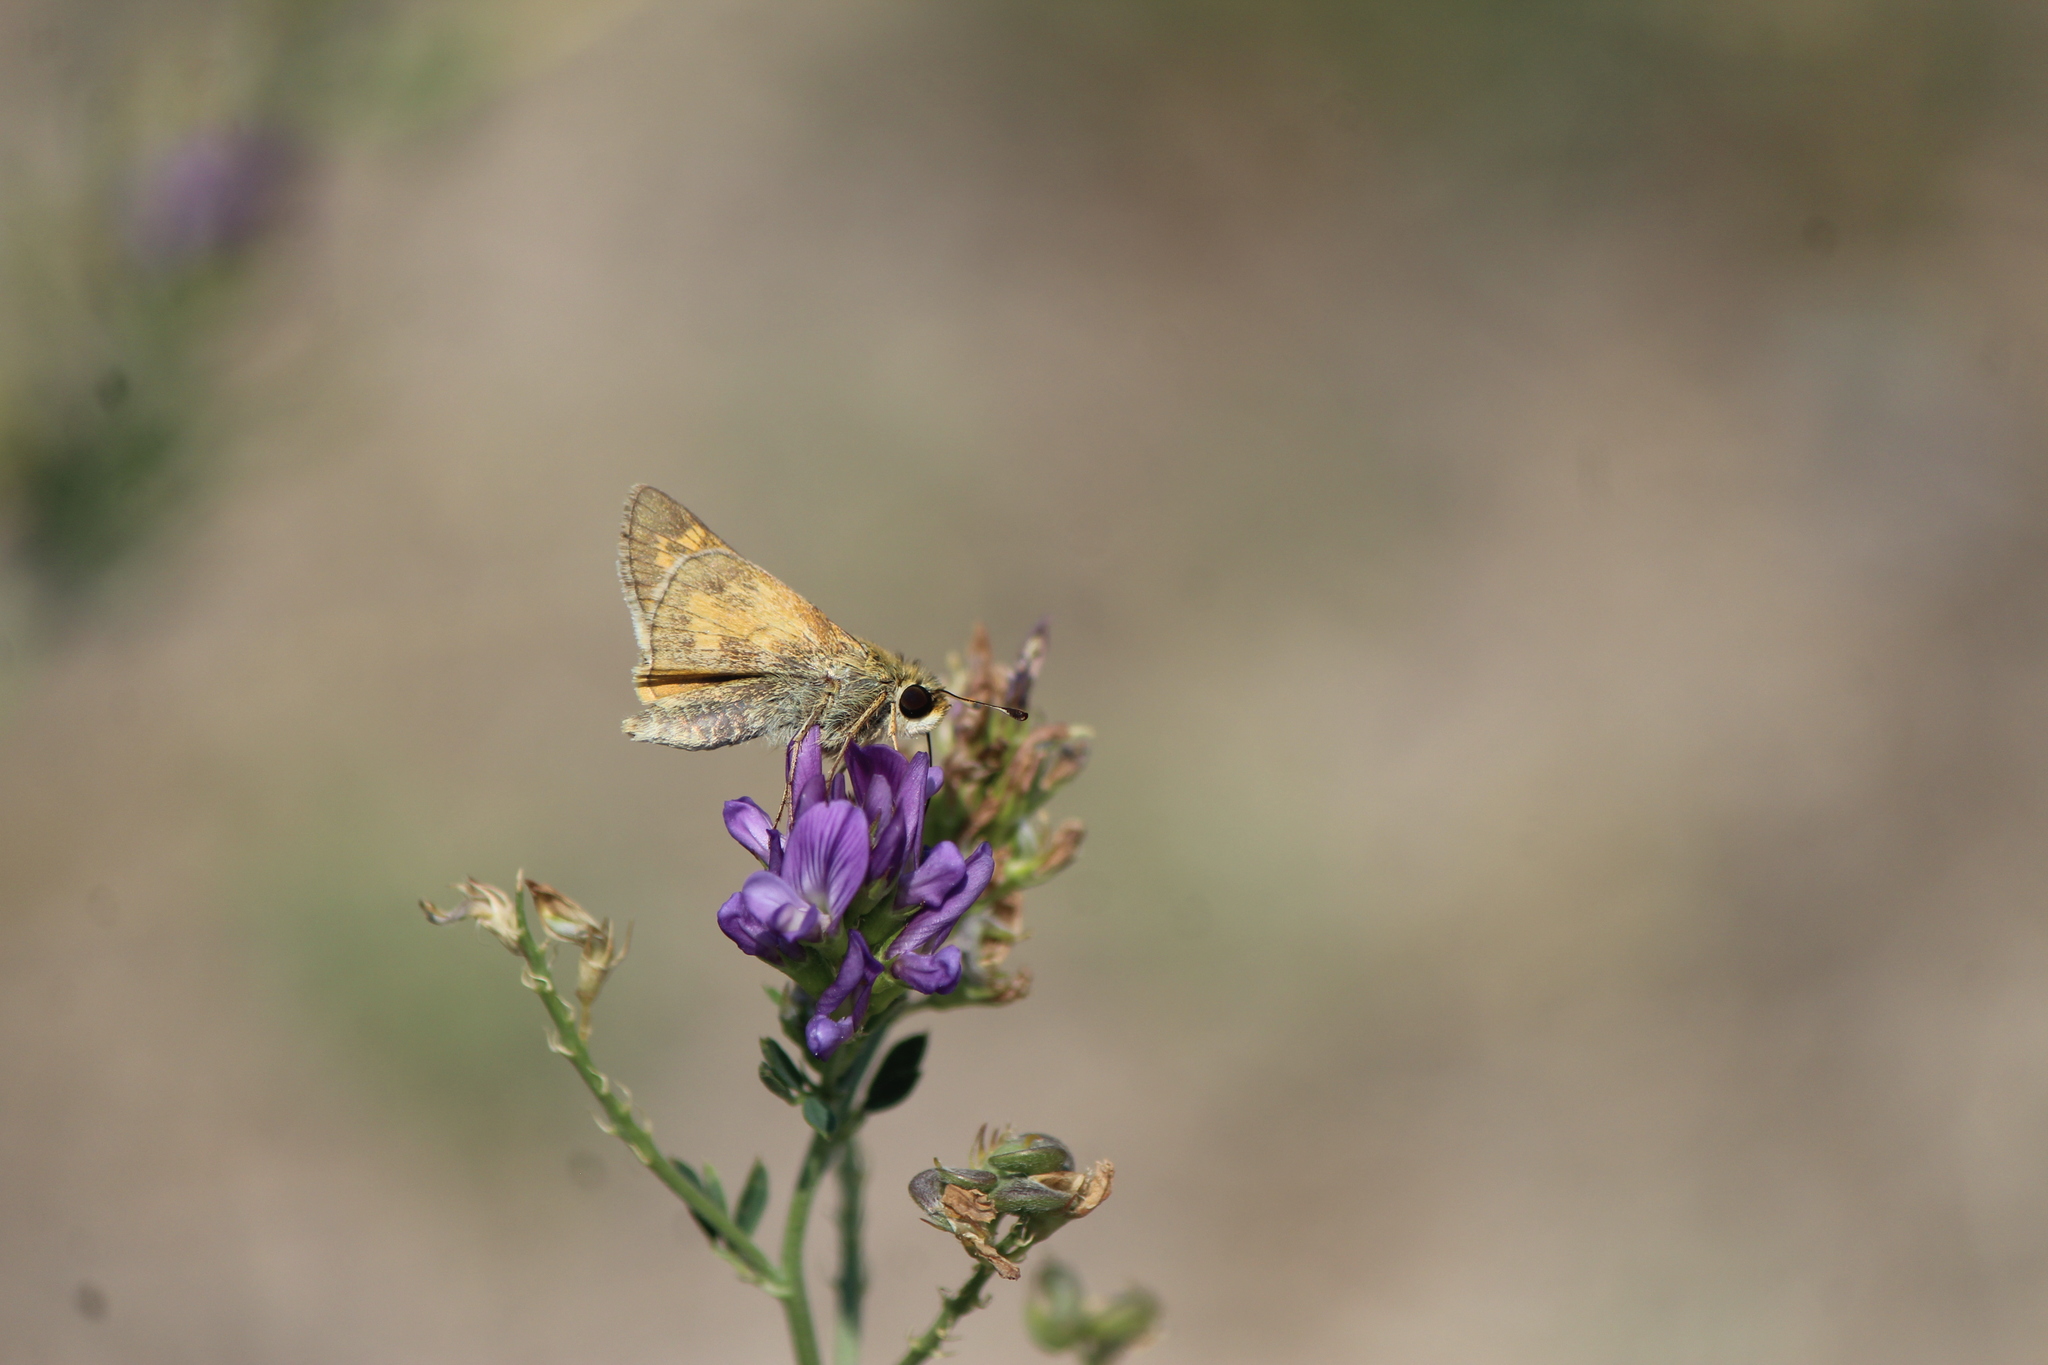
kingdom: Animalia
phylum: Arthropoda
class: Insecta
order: Lepidoptera
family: Hesperiidae
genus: Atalopedes
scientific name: Atalopedes
